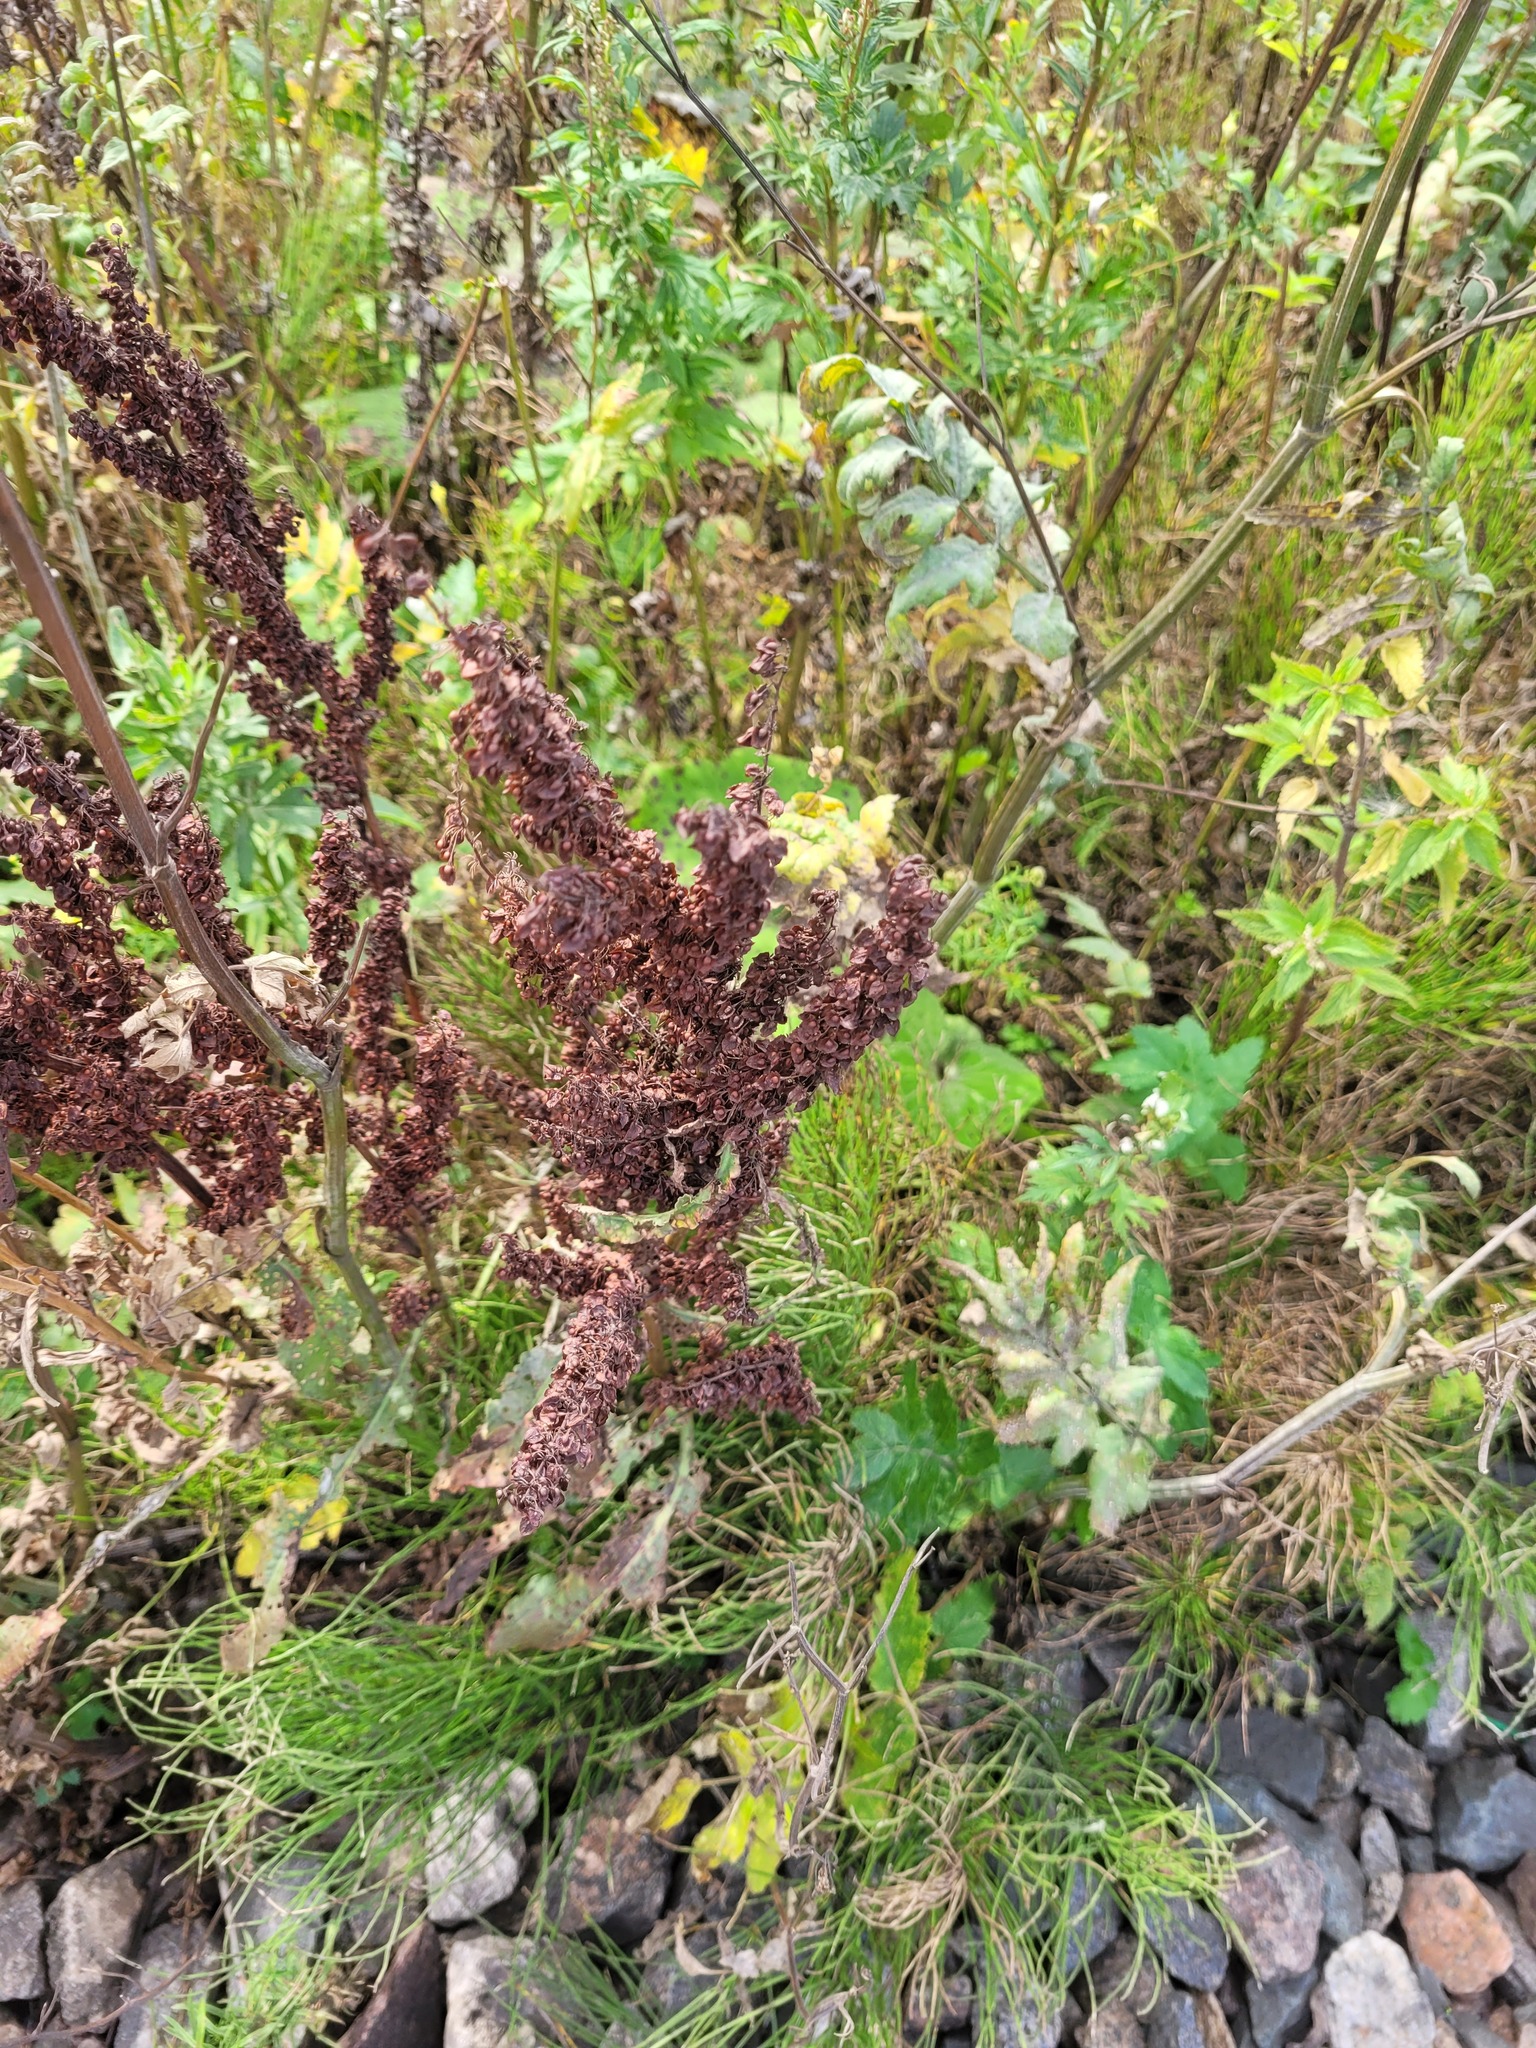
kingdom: Plantae
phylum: Tracheophyta
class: Magnoliopsida
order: Caryophyllales
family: Polygonaceae
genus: Rumex
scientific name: Rumex crispus
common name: Curled dock
